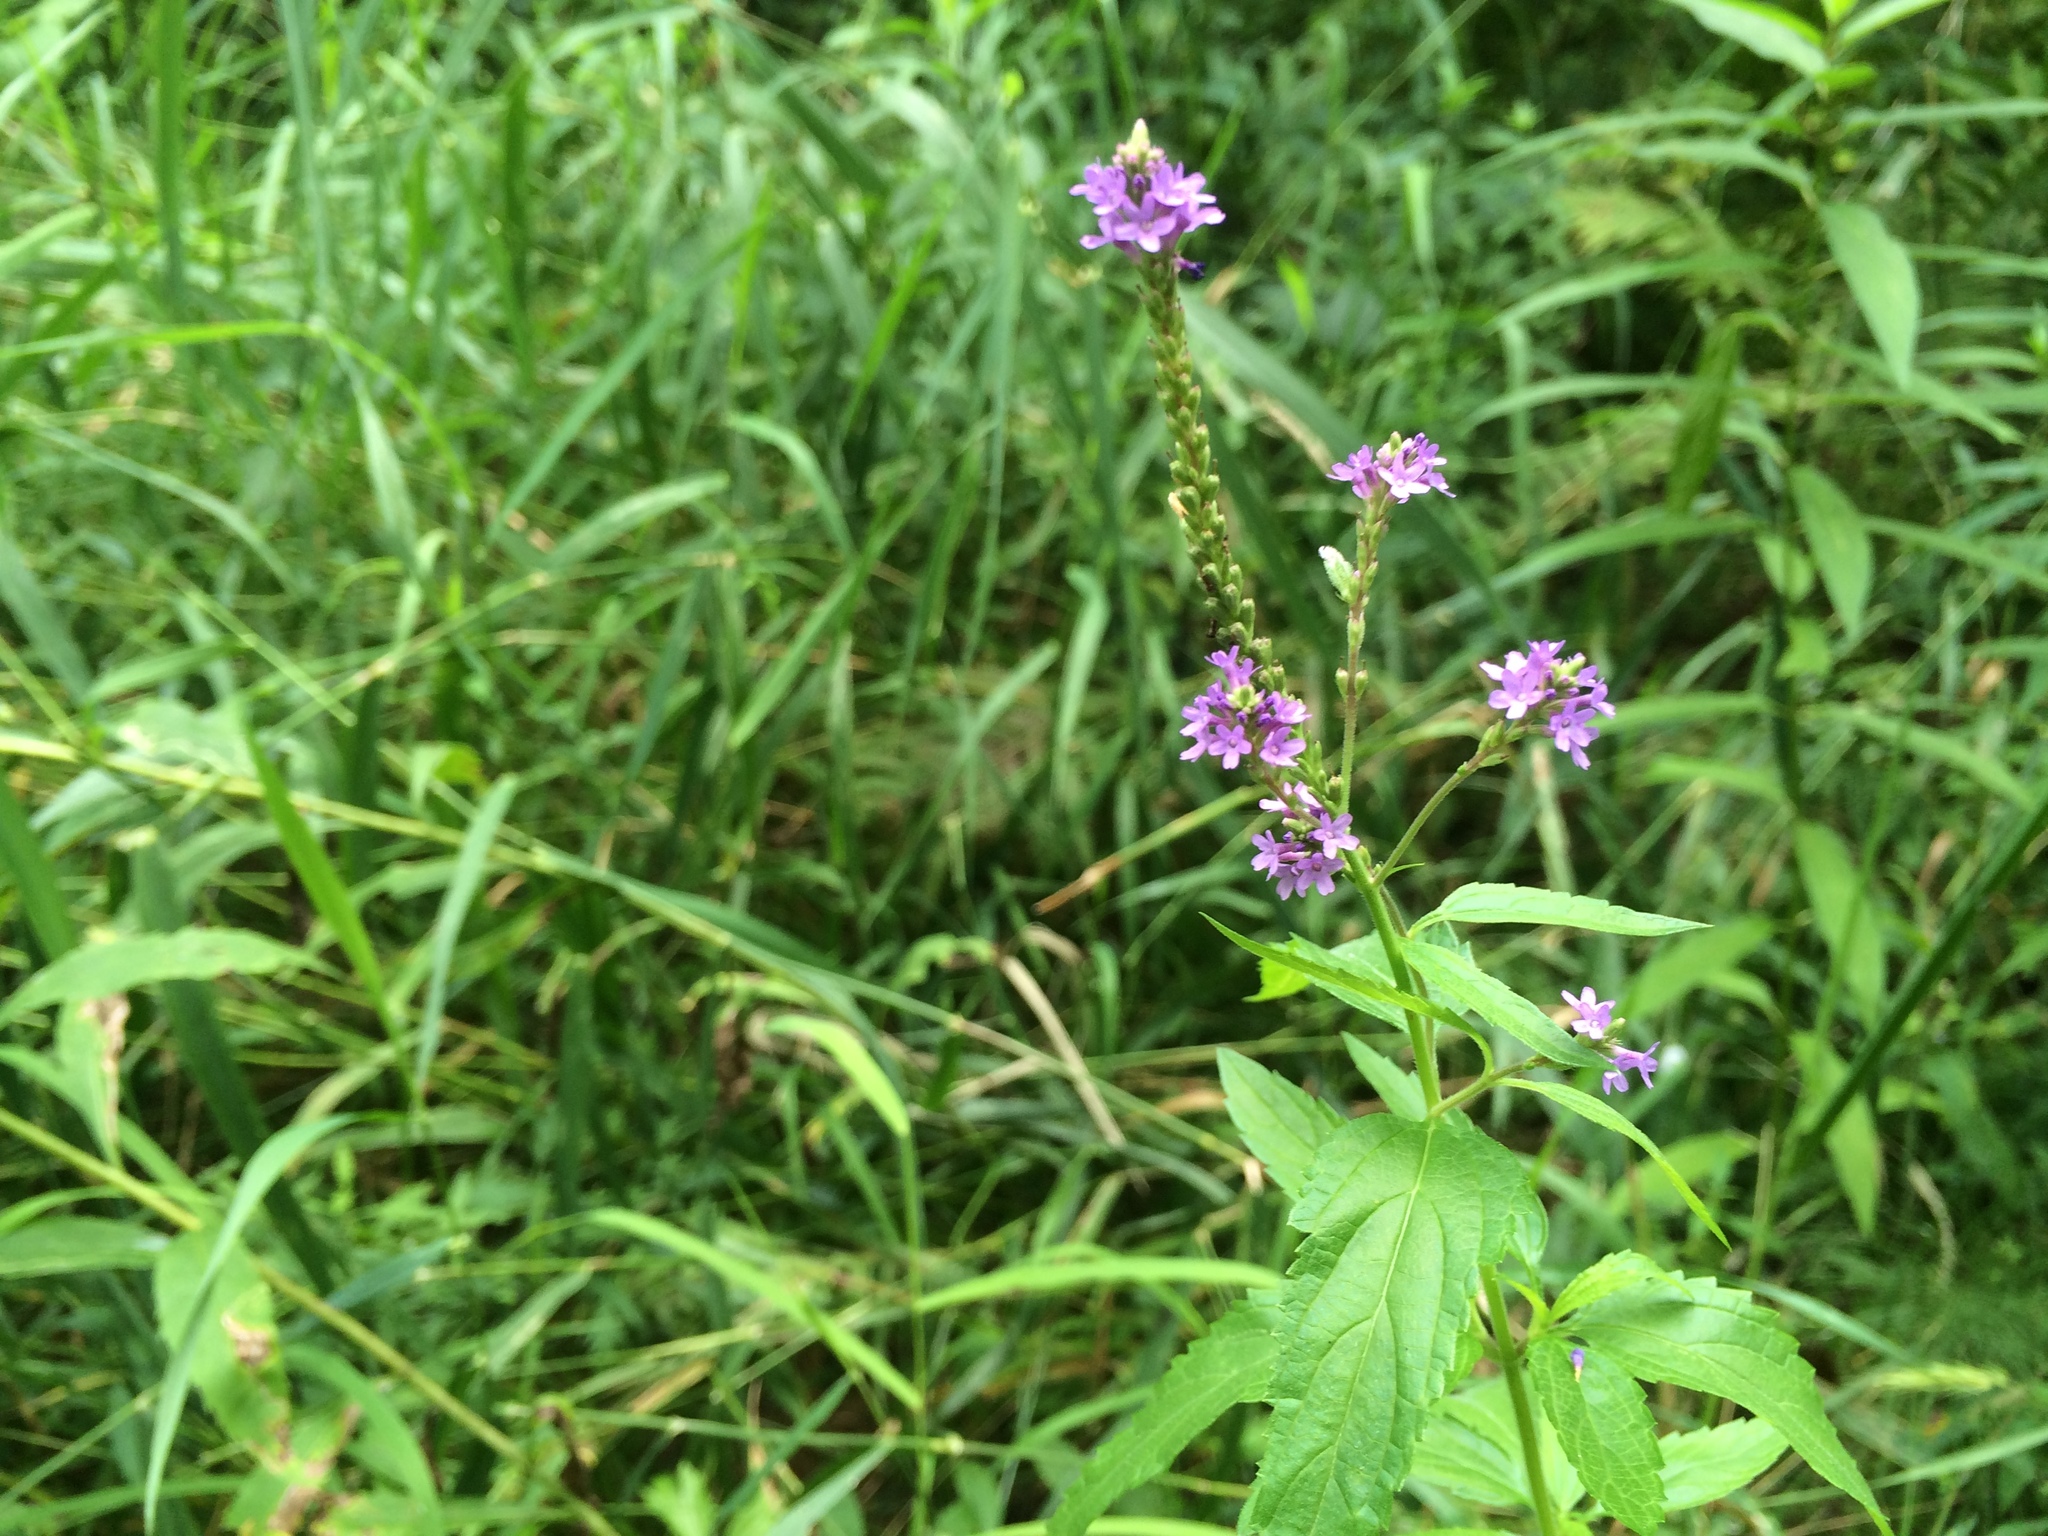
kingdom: Plantae
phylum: Tracheophyta
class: Magnoliopsida
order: Lamiales
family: Verbenaceae
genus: Verbena
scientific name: Verbena hastata
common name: American blue vervain
